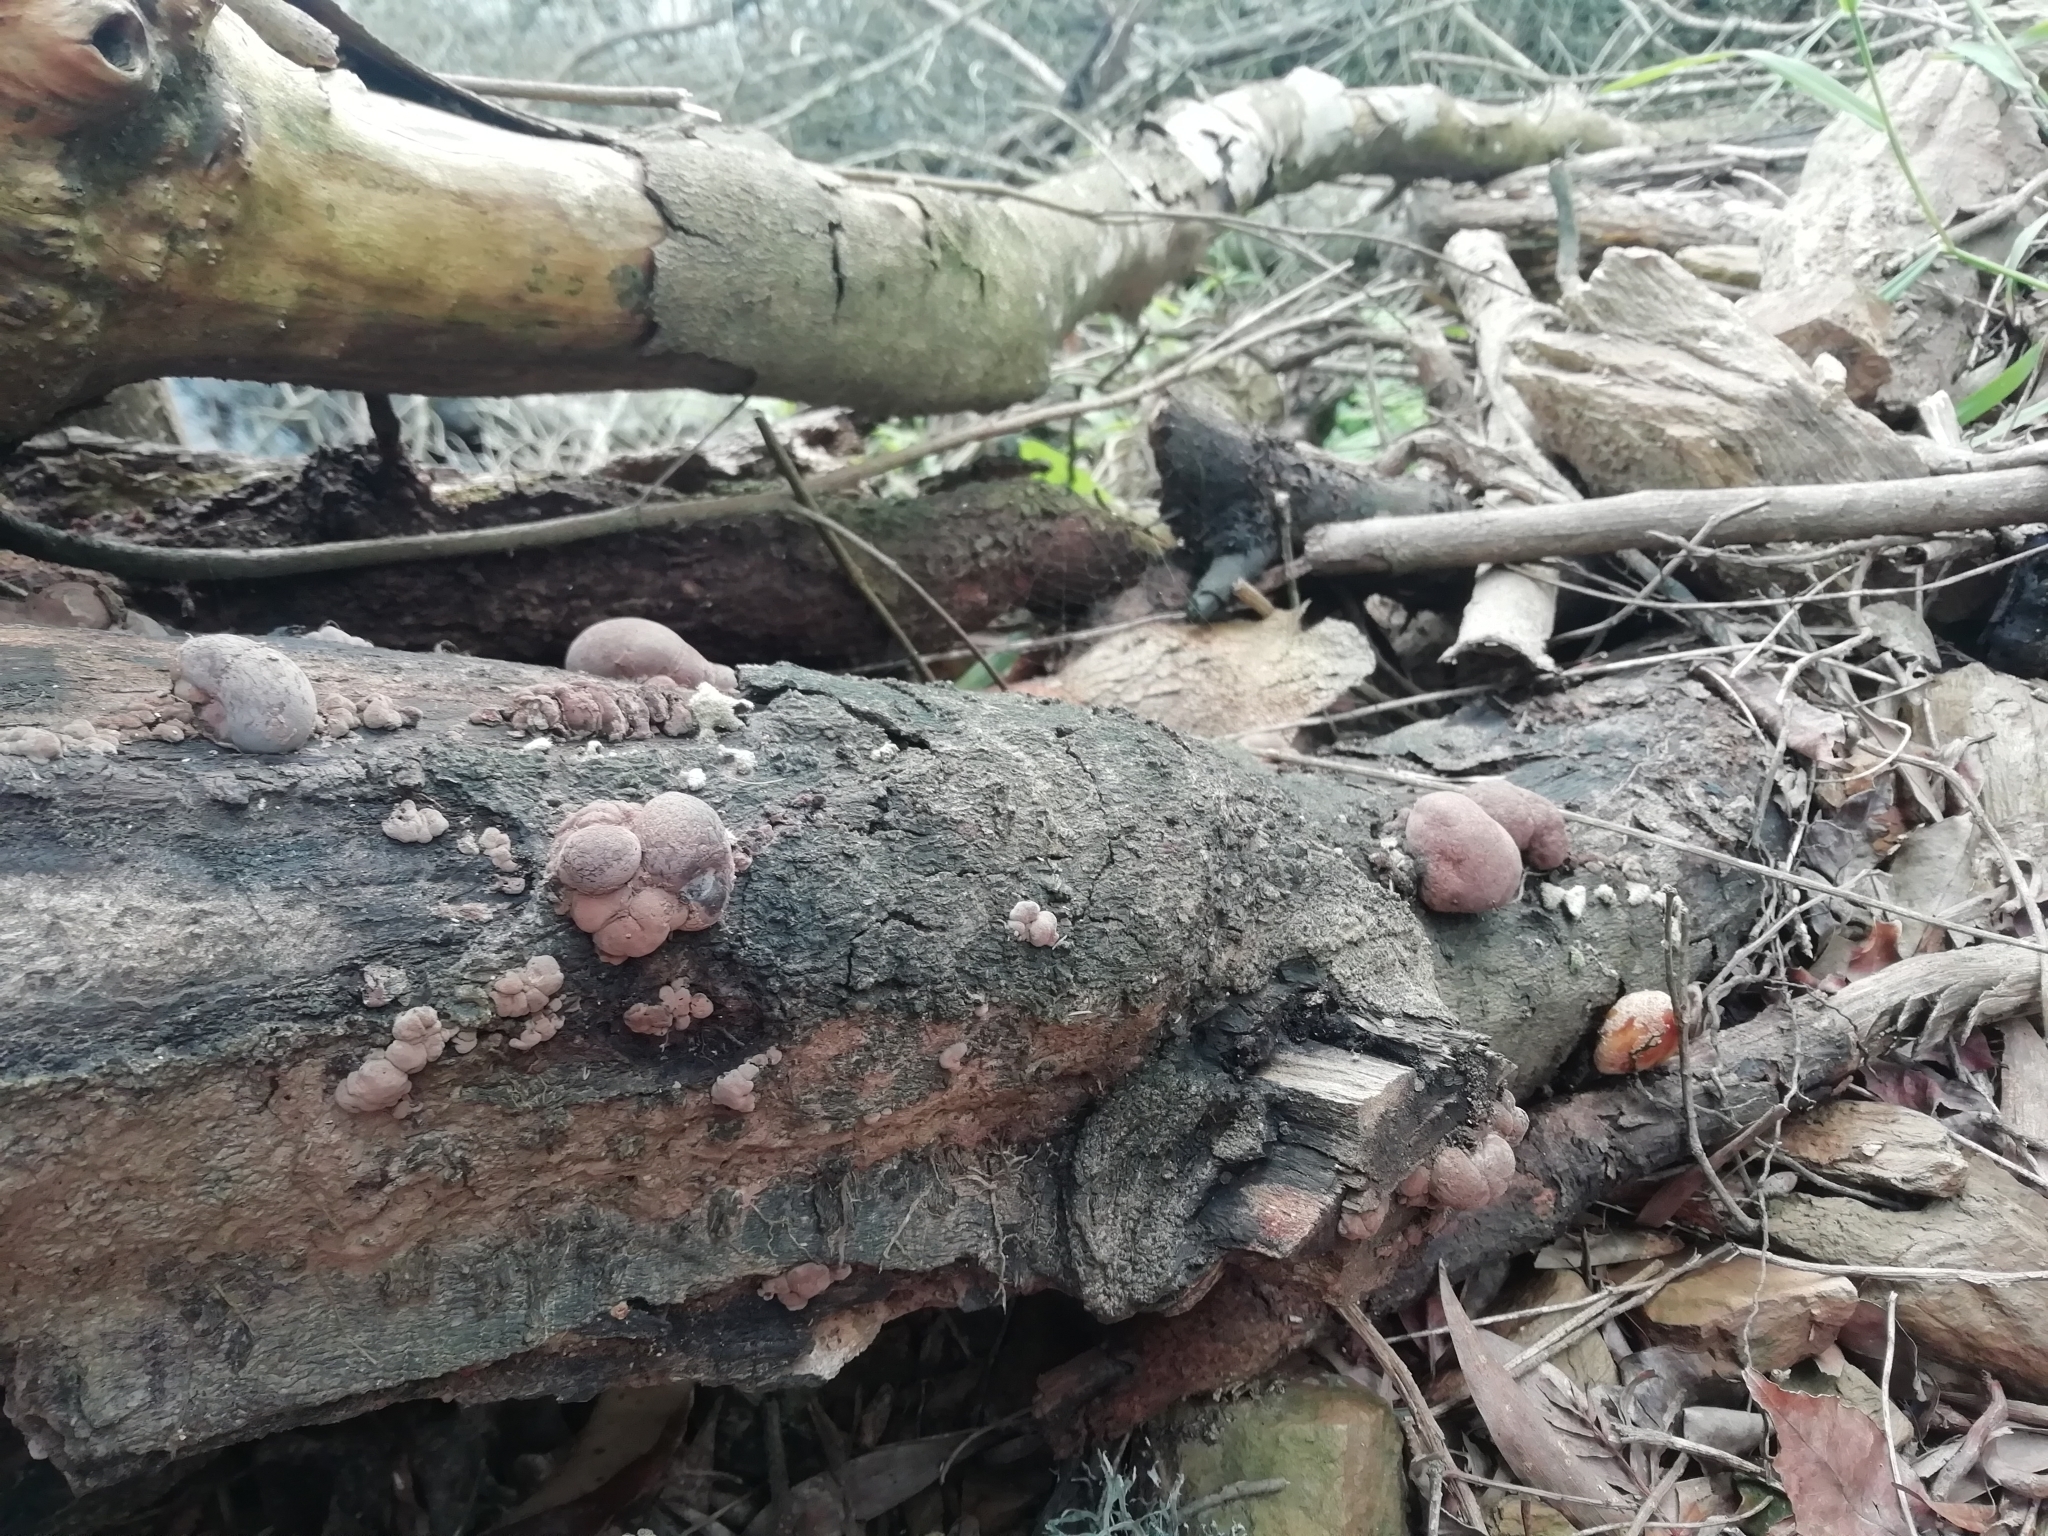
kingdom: Fungi
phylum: Ascomycota
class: Sordariomycetes
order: Xylariales
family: Hypoxylaceae
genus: Daldinia
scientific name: Daldinia concentrica
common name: Cramp balls
